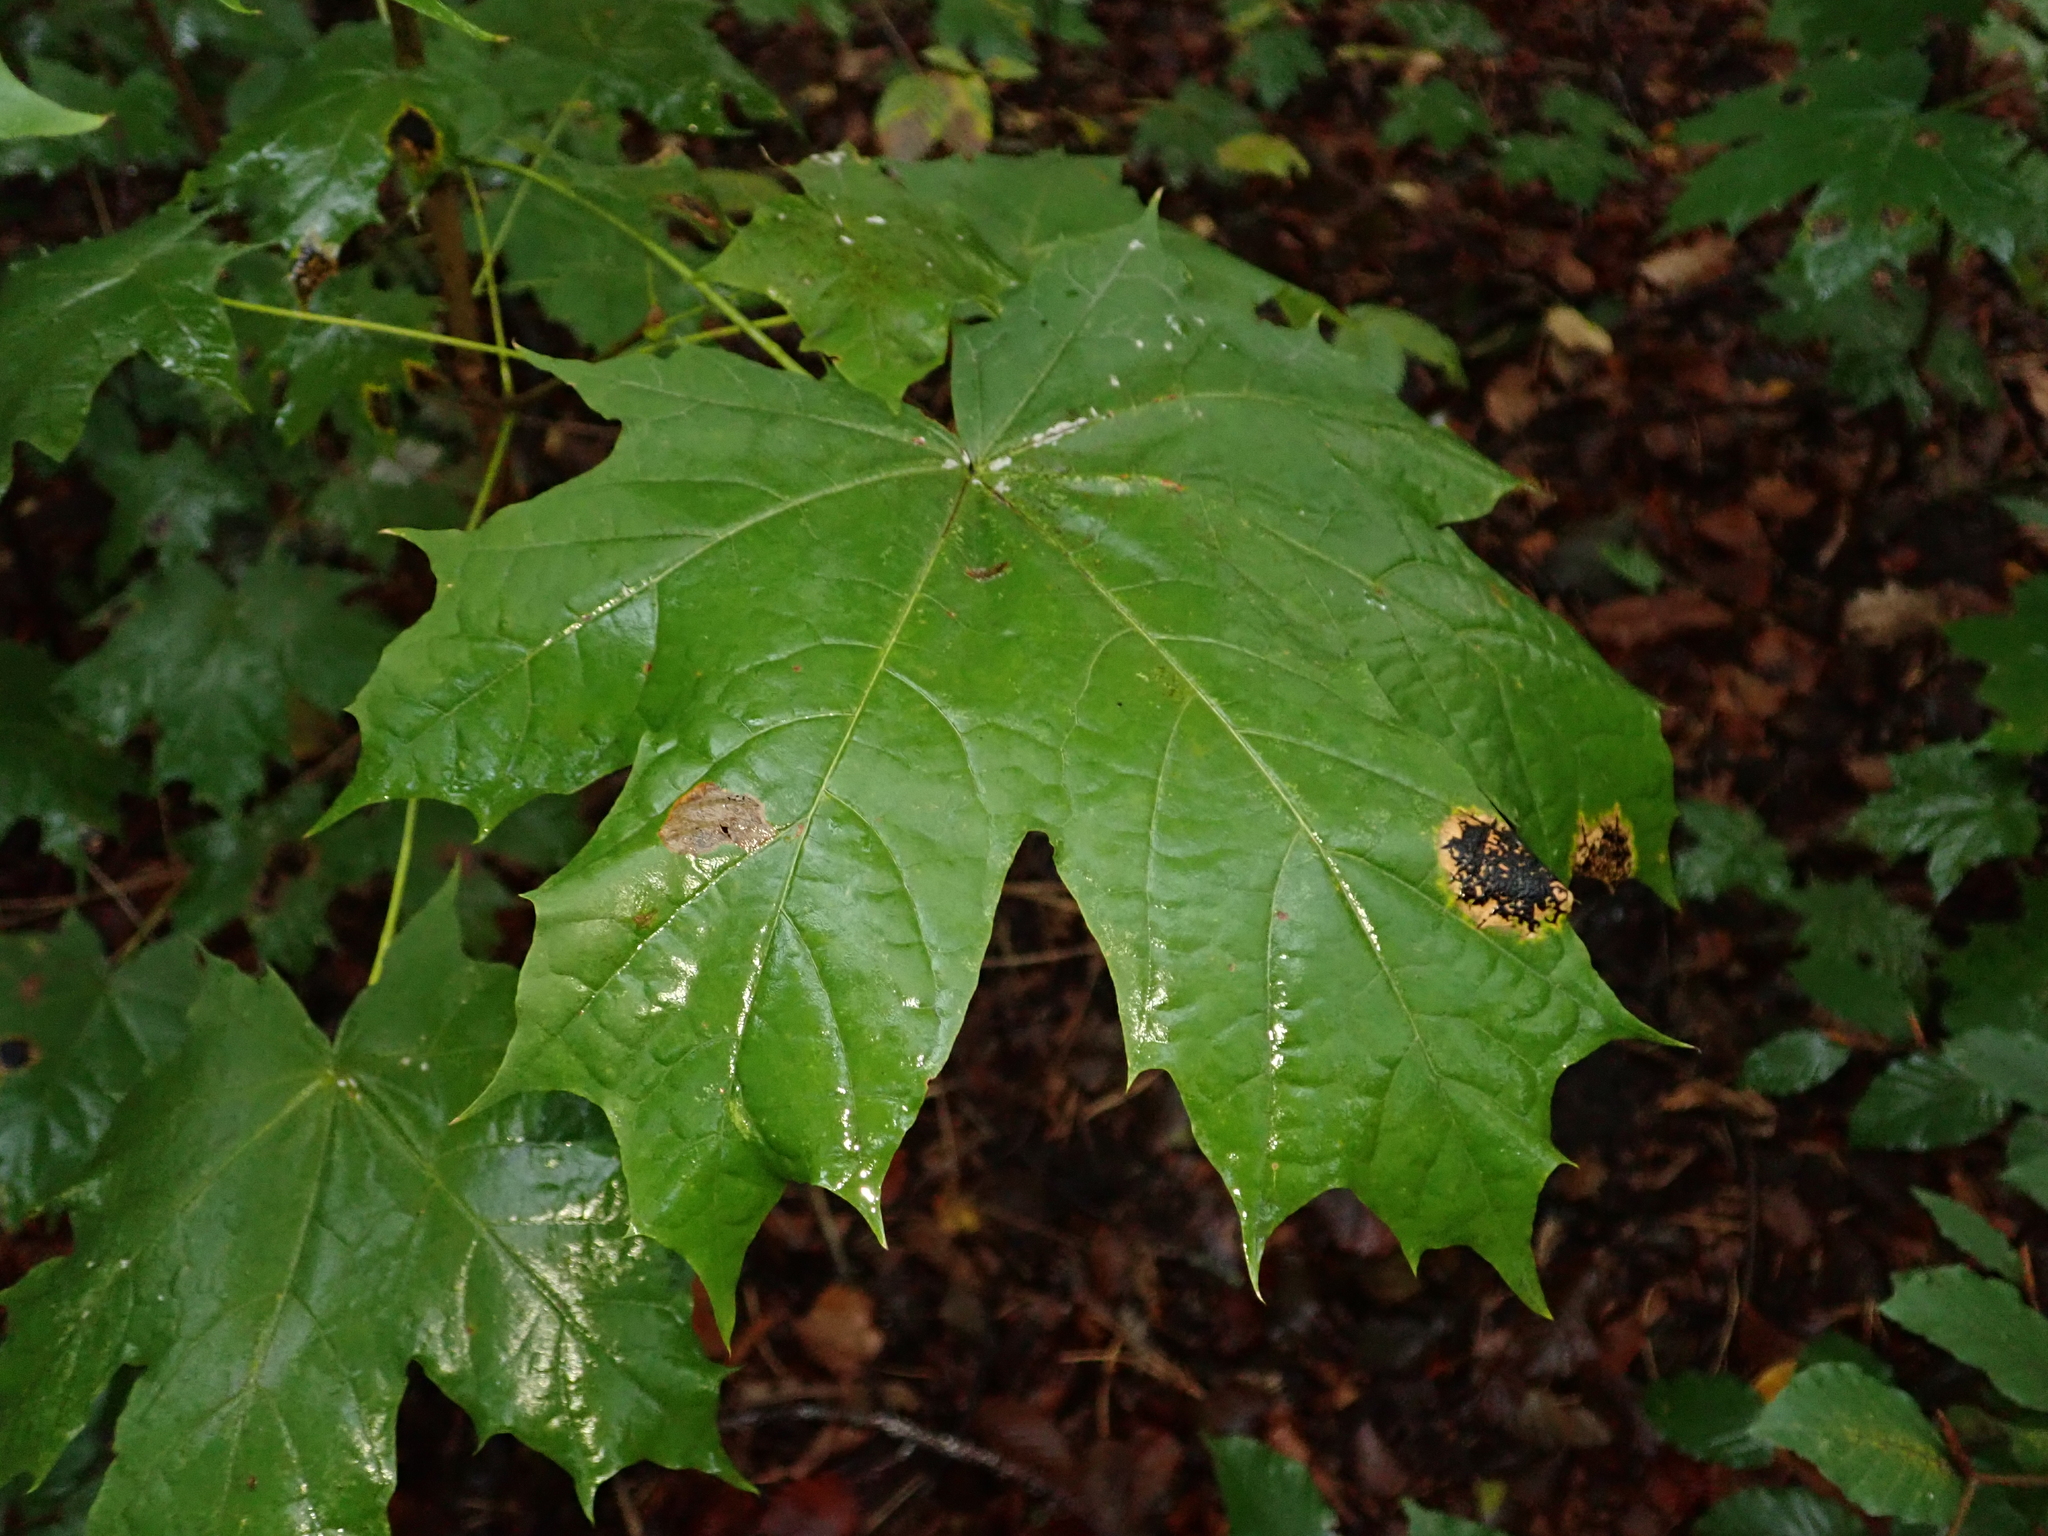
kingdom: Plantae
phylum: Tracheophyta
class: Magnoliopsida
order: Sapindales
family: Sapindaceae
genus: Acer
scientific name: Acer platanoides
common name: Norway maple
